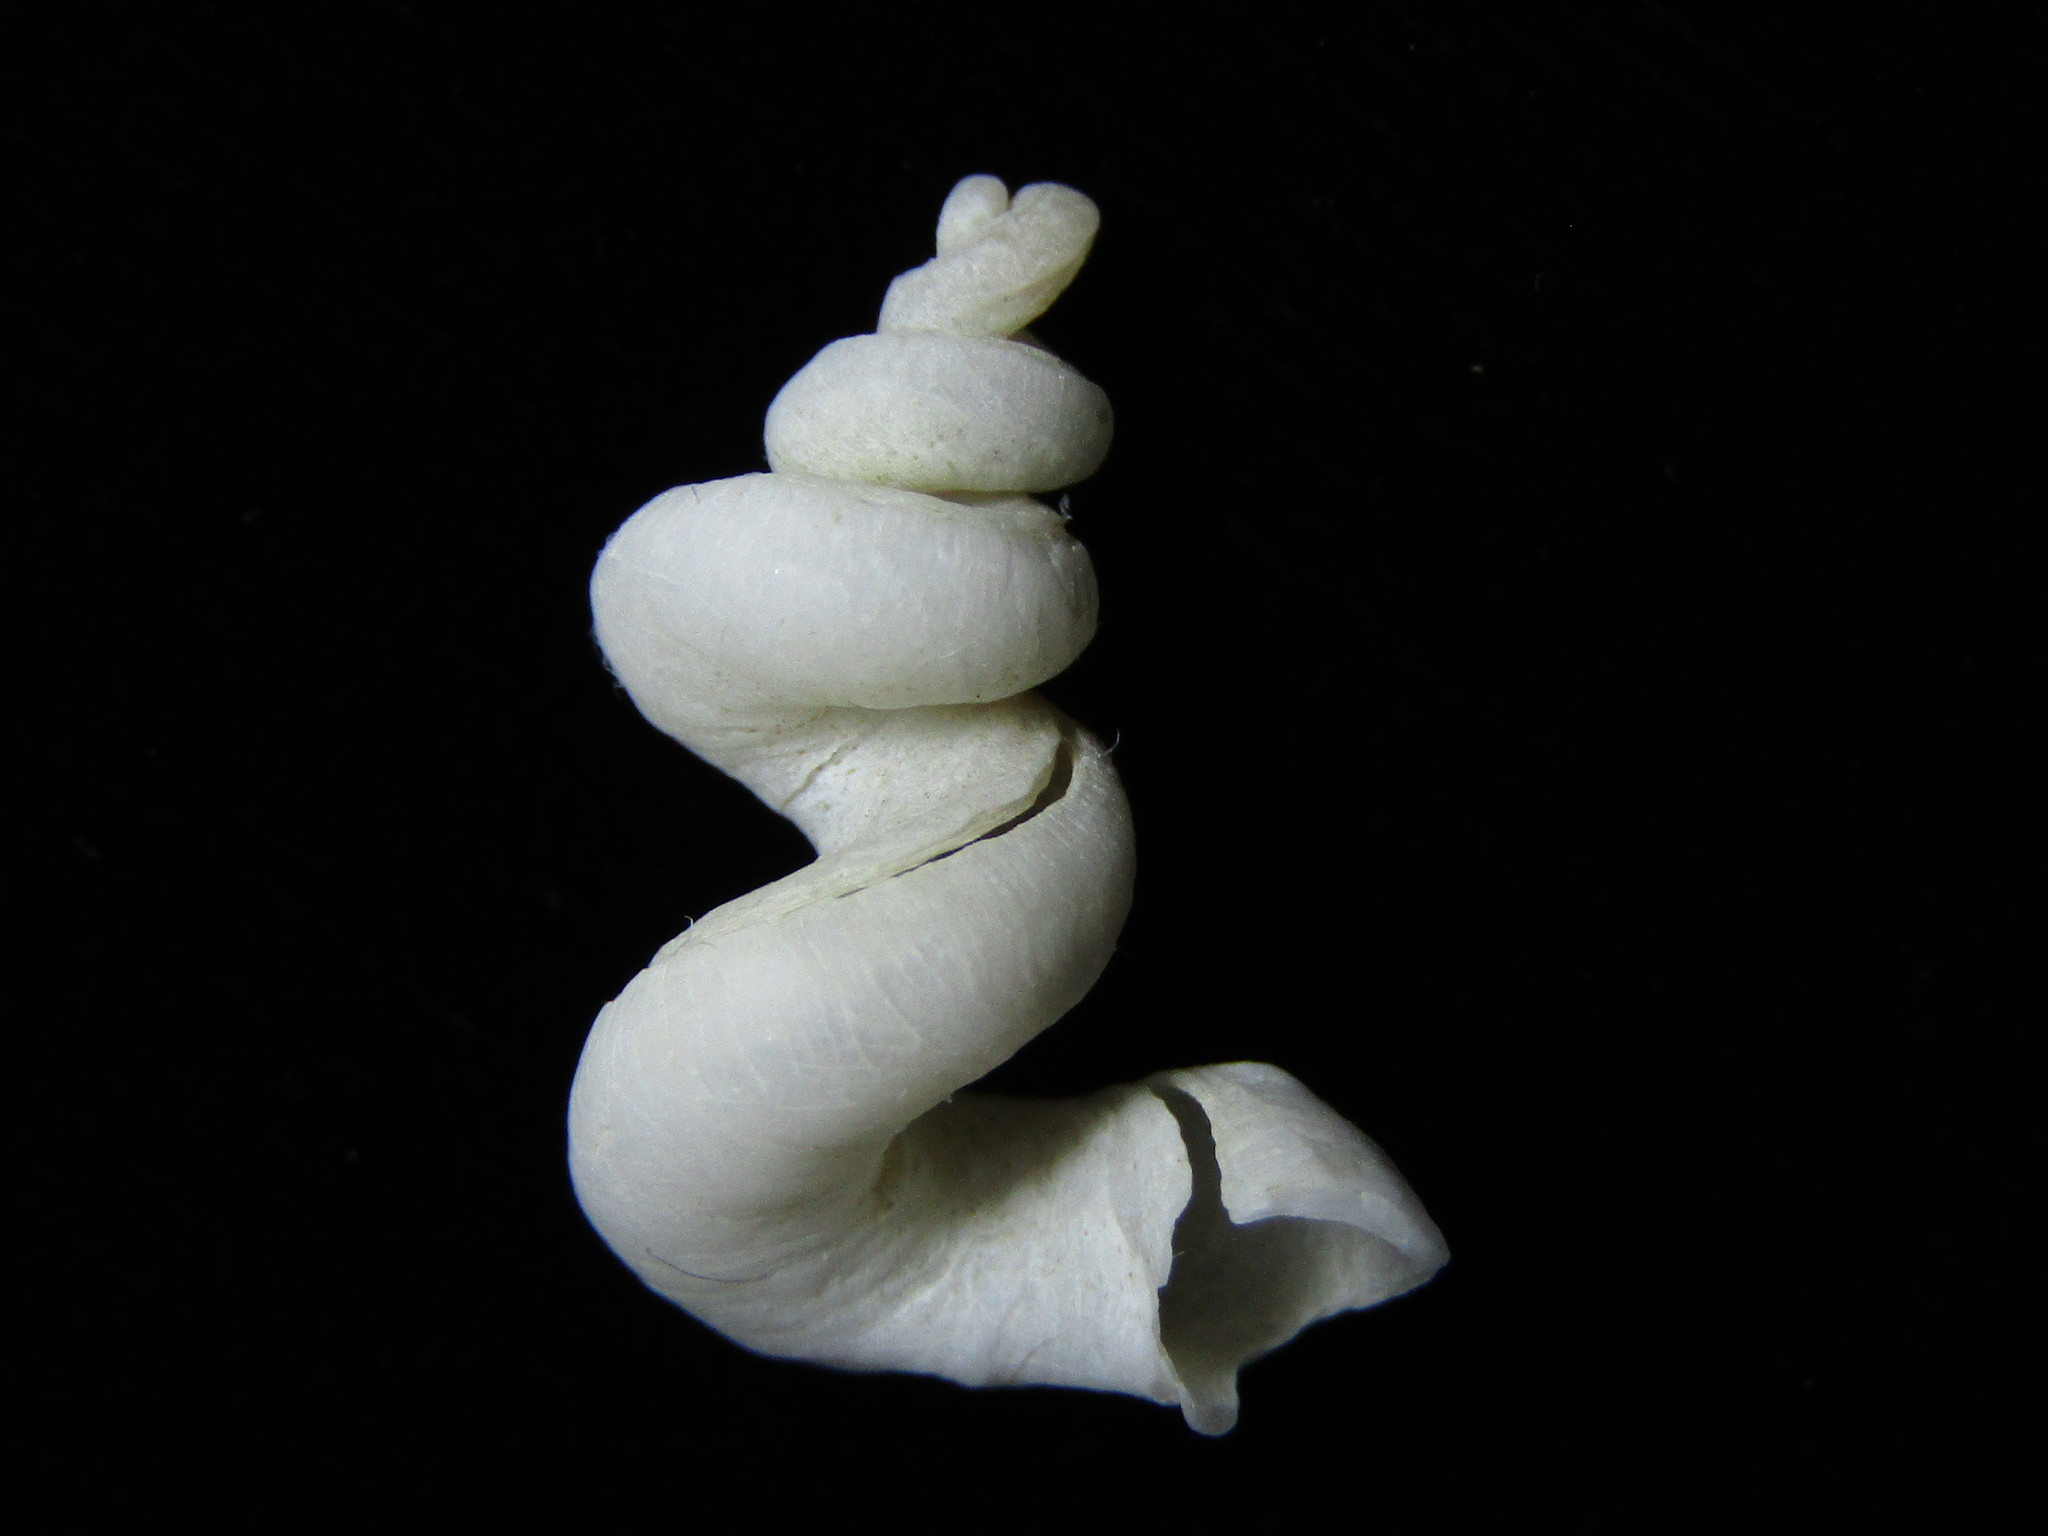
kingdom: Animalia
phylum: Mollusca
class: Gastropoda
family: Siliquariidae
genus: Tenagodus
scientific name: Tenagodus weldii
